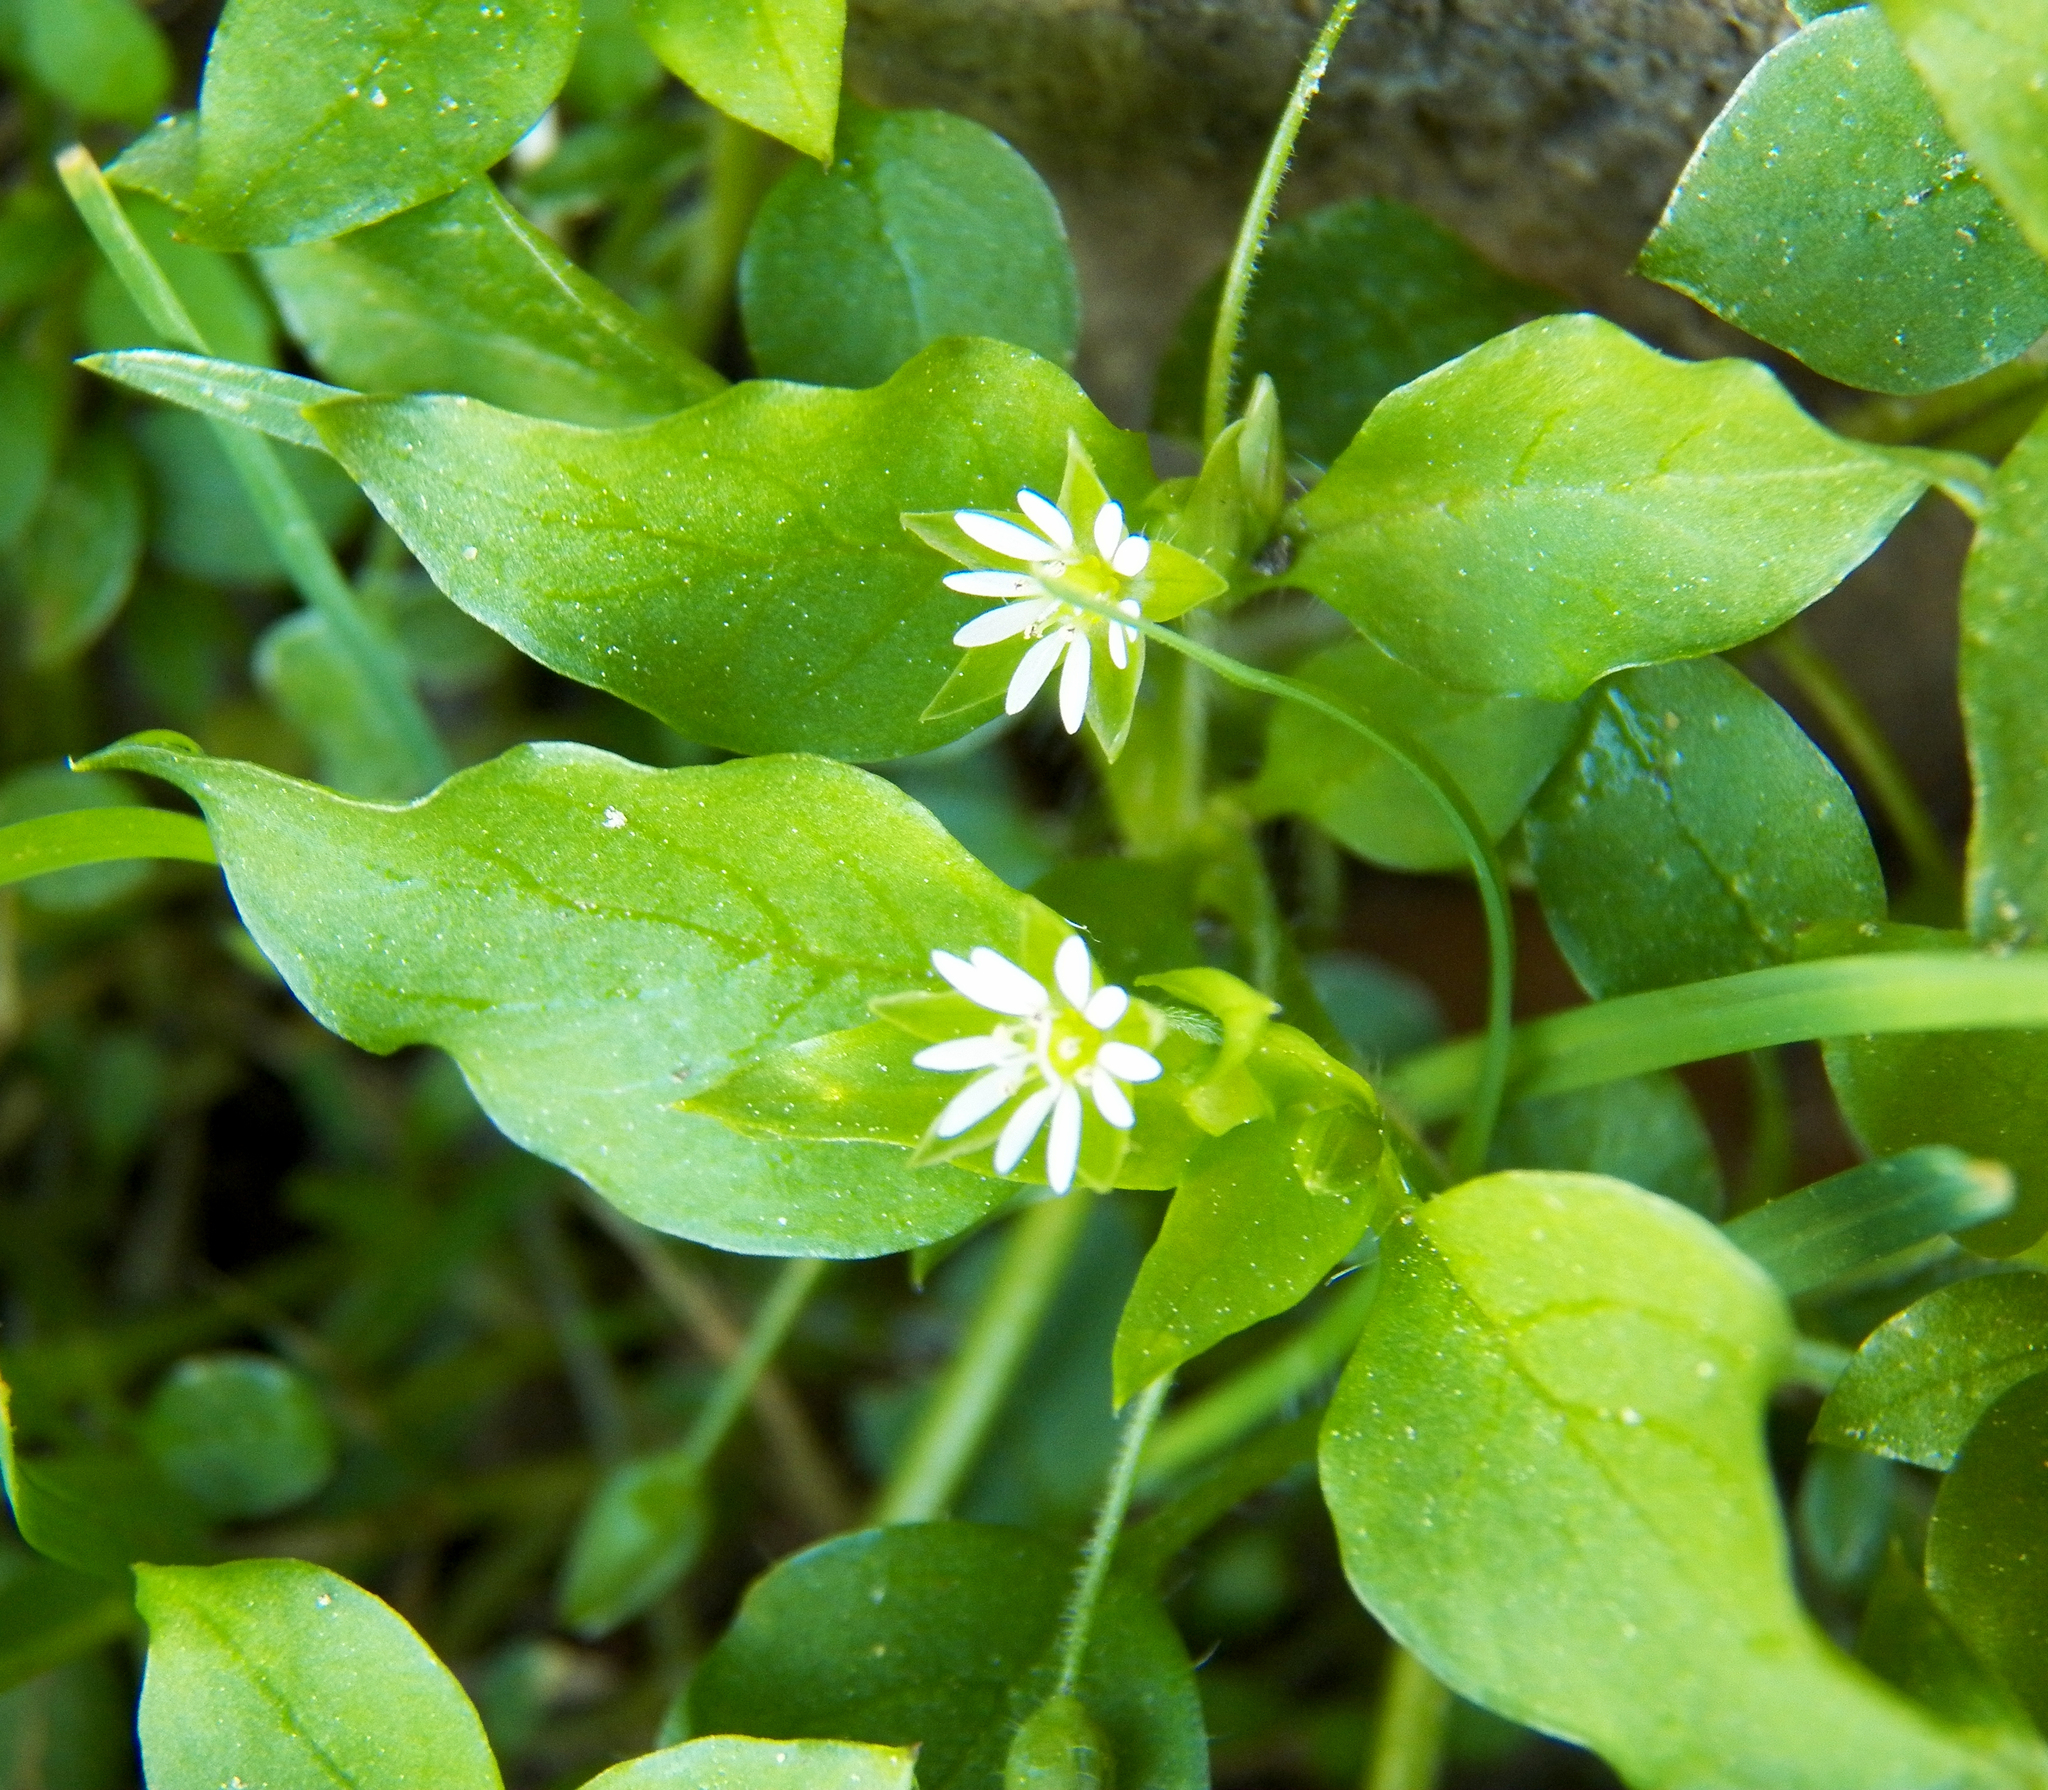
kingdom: Plantae
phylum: Tracheophyta
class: Magnoliopsida
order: Caryophyllales
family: Caryophyllaceae
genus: Stellaria
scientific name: Stellaria media
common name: Common chickweed
